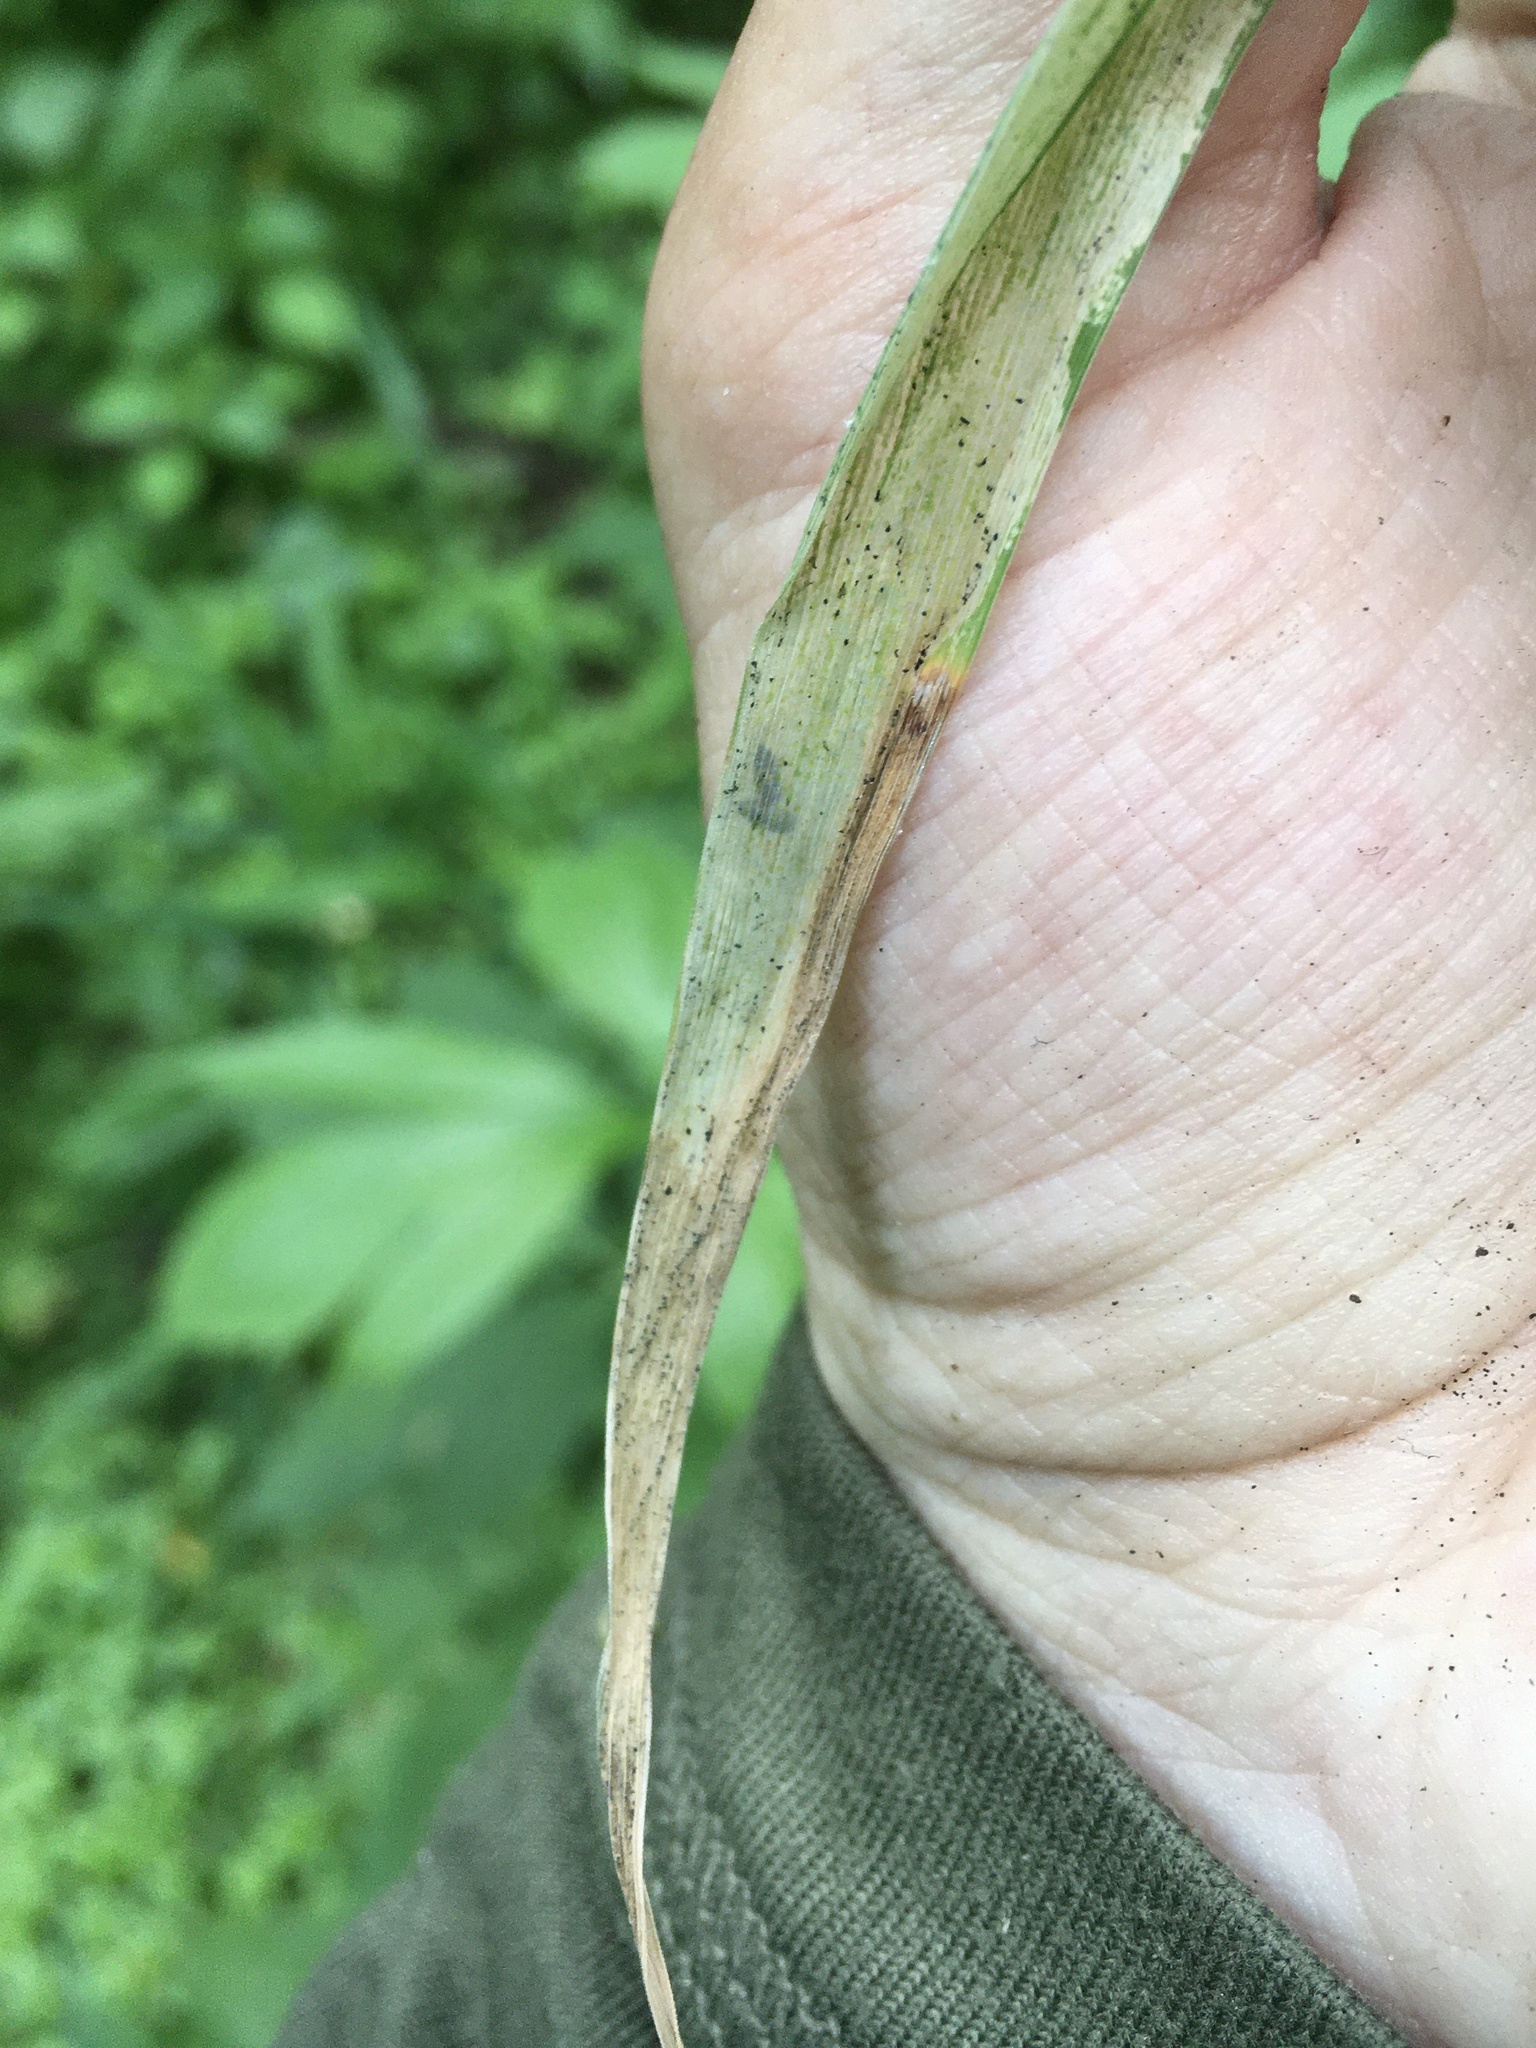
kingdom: Animalia
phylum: Arthropoda
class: Insecta
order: Diptera
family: Agromyzidae
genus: Cerodontha
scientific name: Cerodontha incisa
